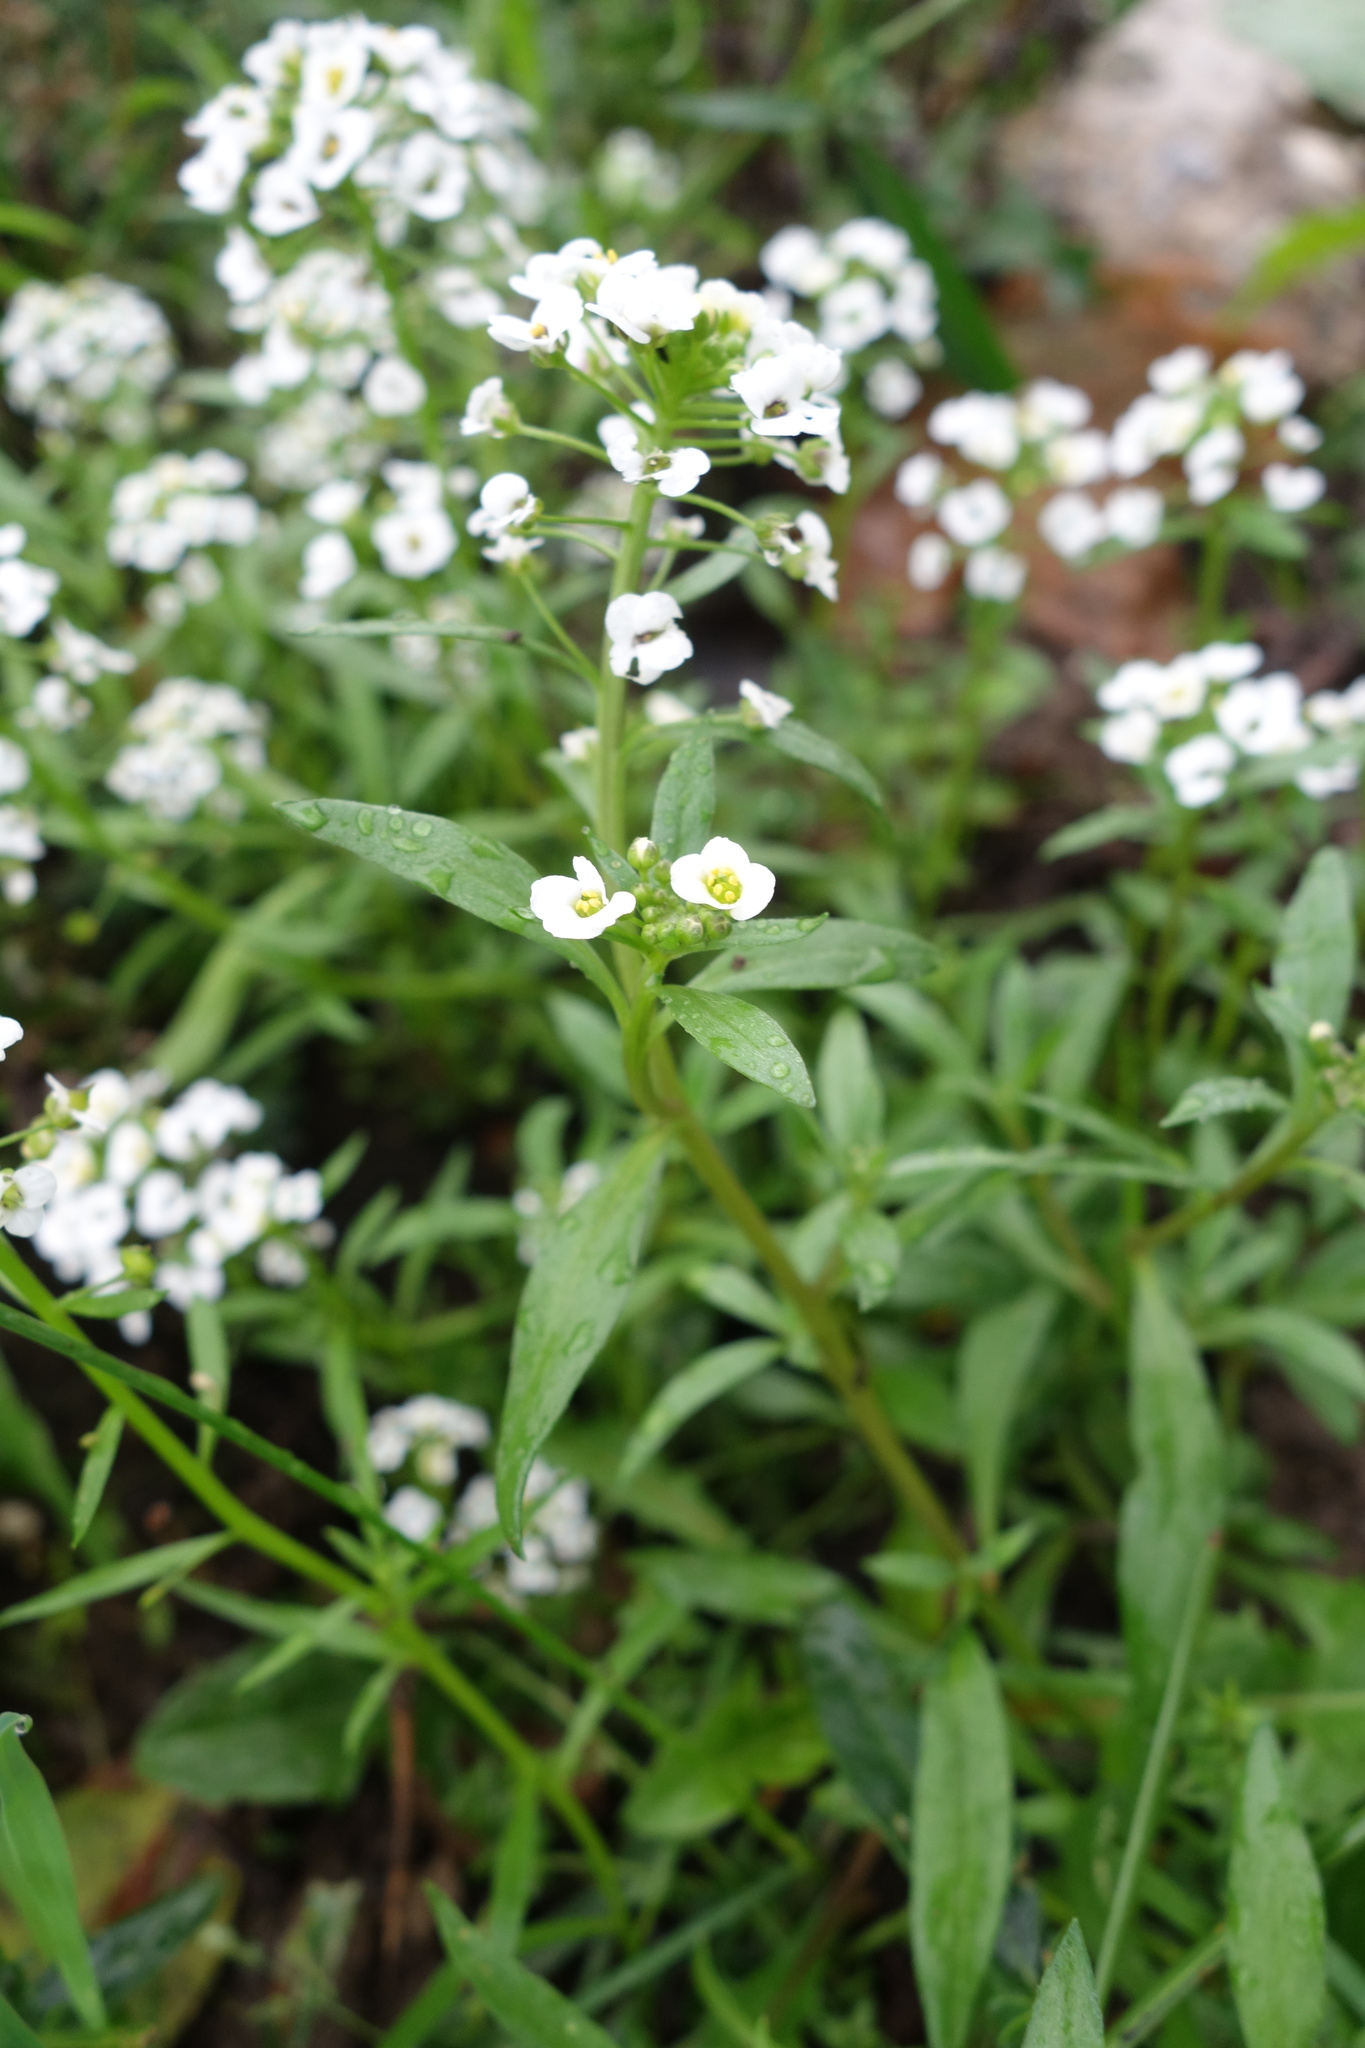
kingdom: Plantae
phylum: Tracheophyta
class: Magnoliopsida
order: Brassicales
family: Brassicaceae
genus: Lobularia
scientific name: Lobularia maritima
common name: Sweet alison
